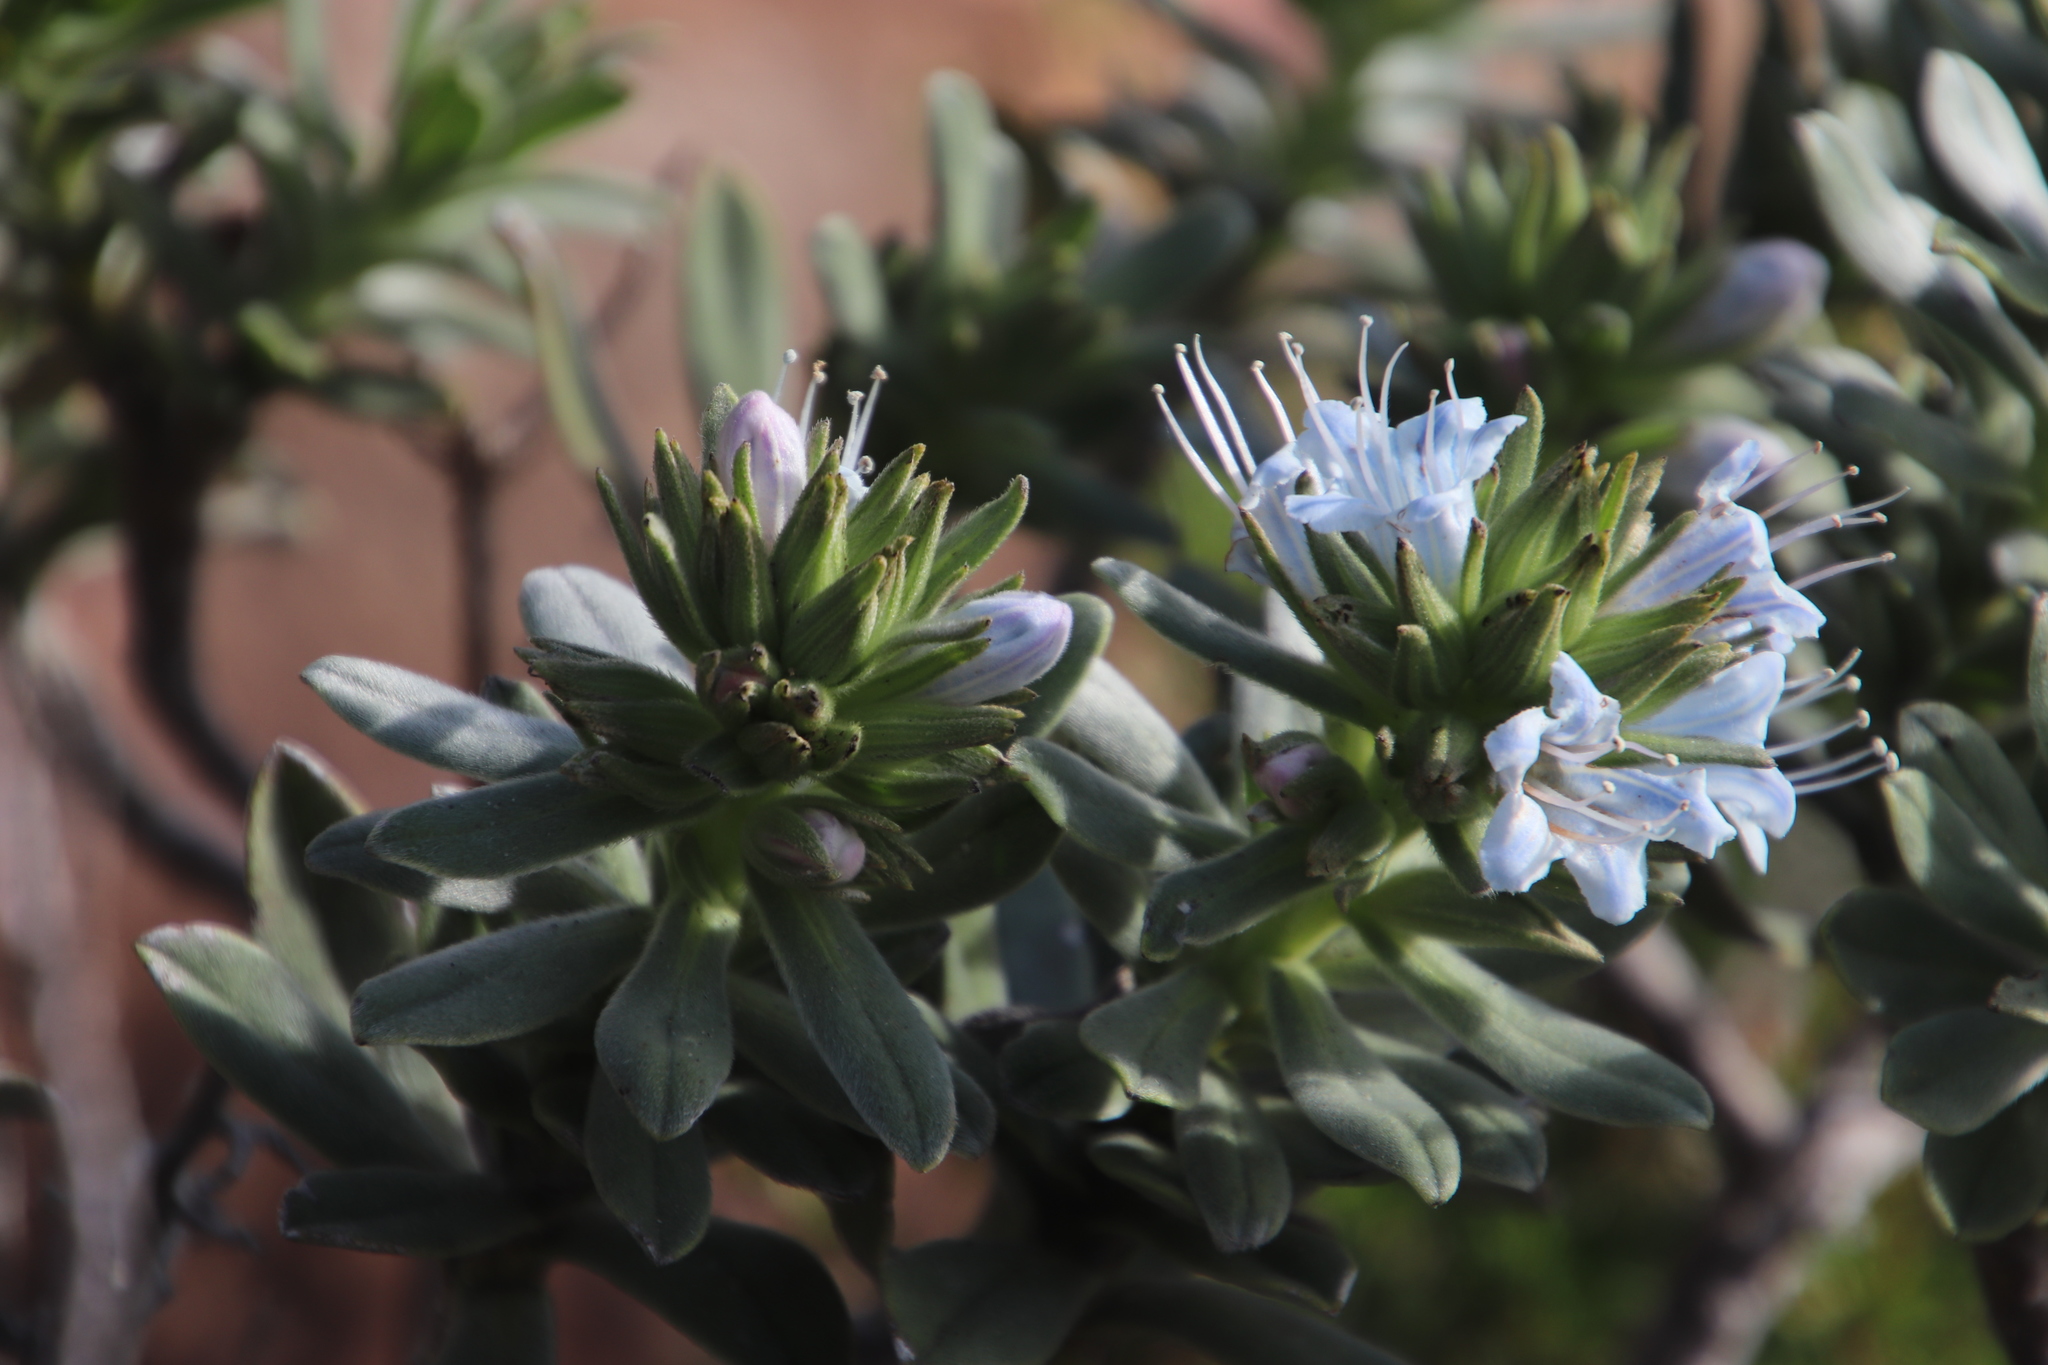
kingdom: Plantae
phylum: Tracheophyta
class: Magnoliopsida
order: Boraginales
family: Boraginaceae
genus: Lobostemon
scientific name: Lobostemon montanus
